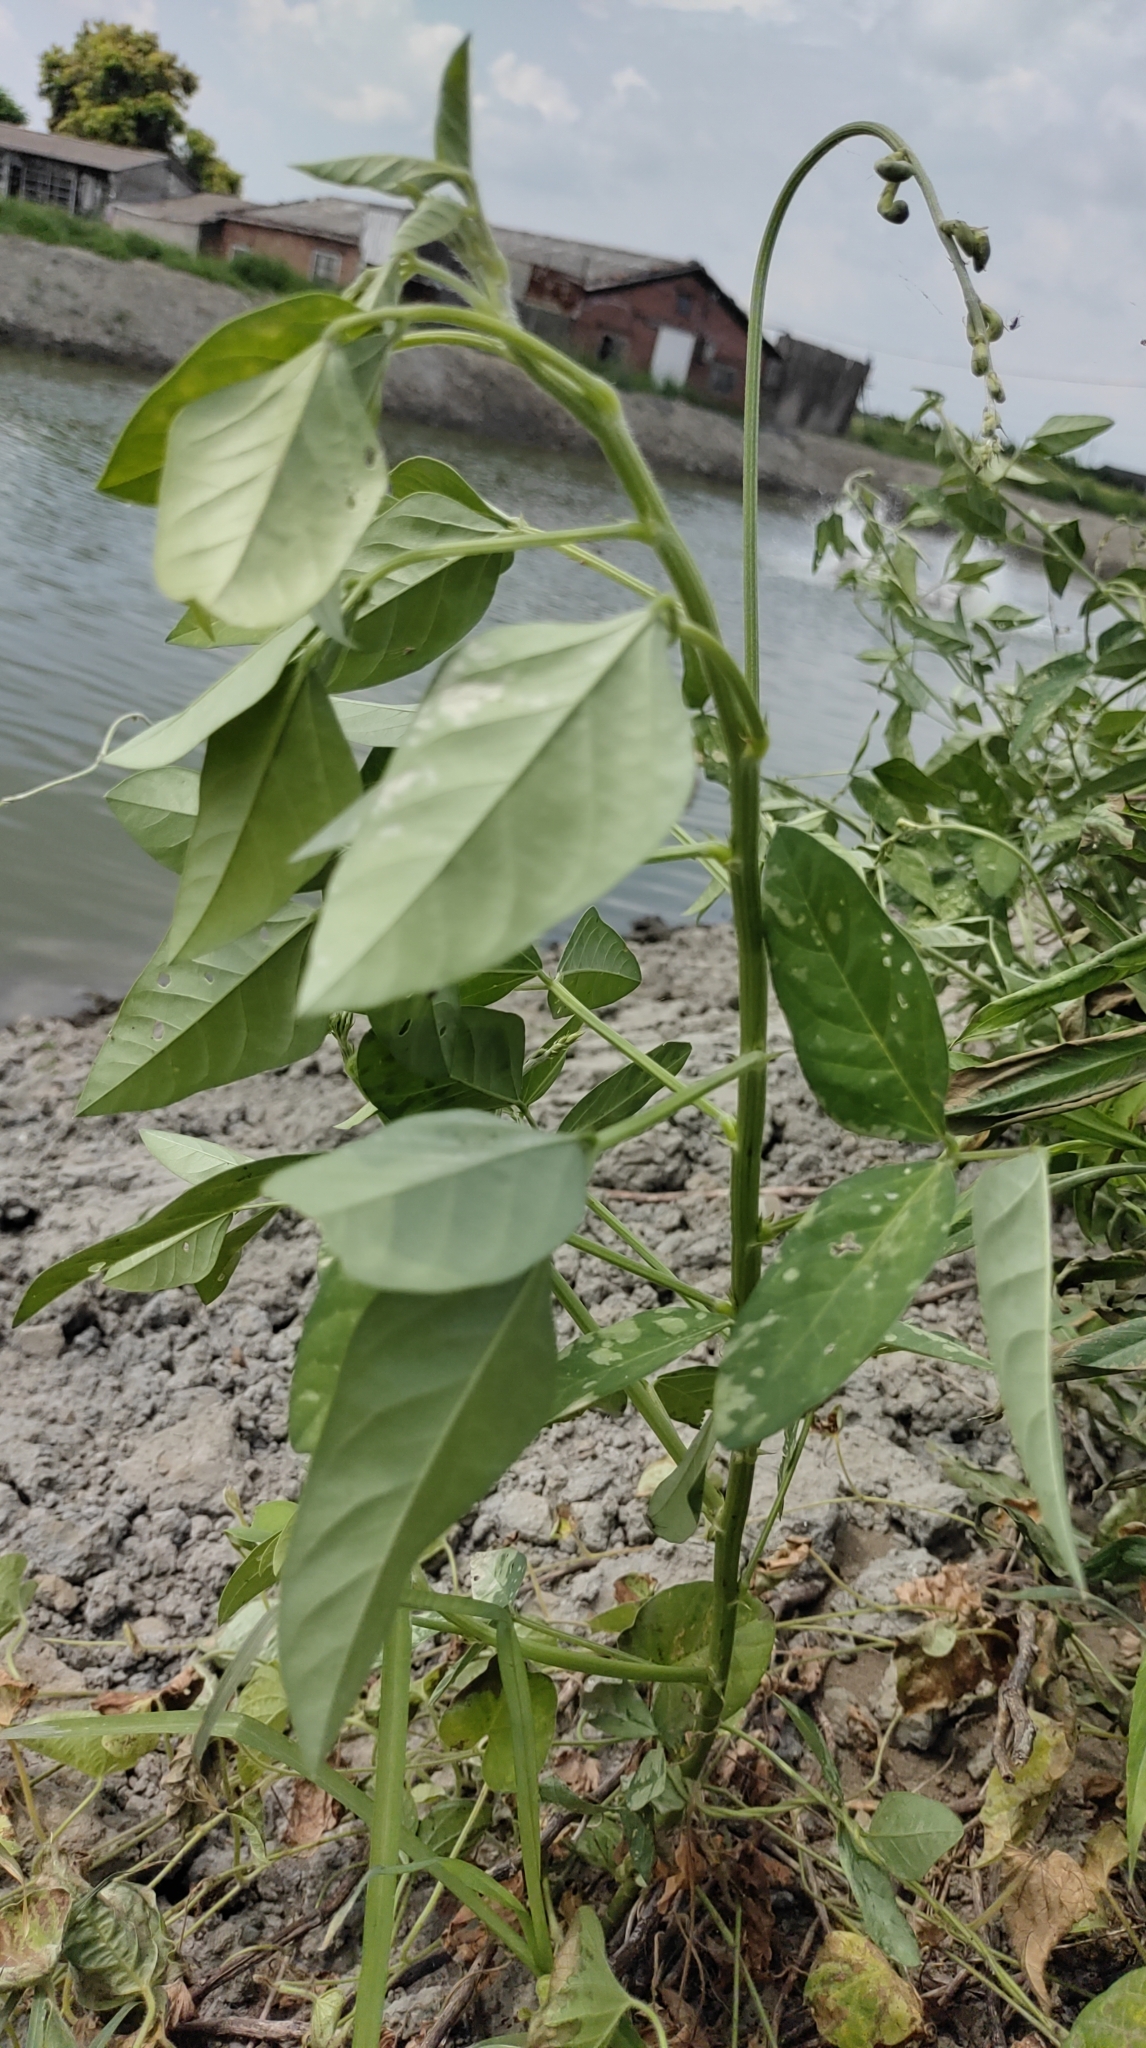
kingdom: Plantae
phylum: Tracheophyta
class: Magnoliopsida
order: Fabales
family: Fabaceae
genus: Macroptilium
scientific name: Macroptilium lathyroides
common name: Wild bushbean
